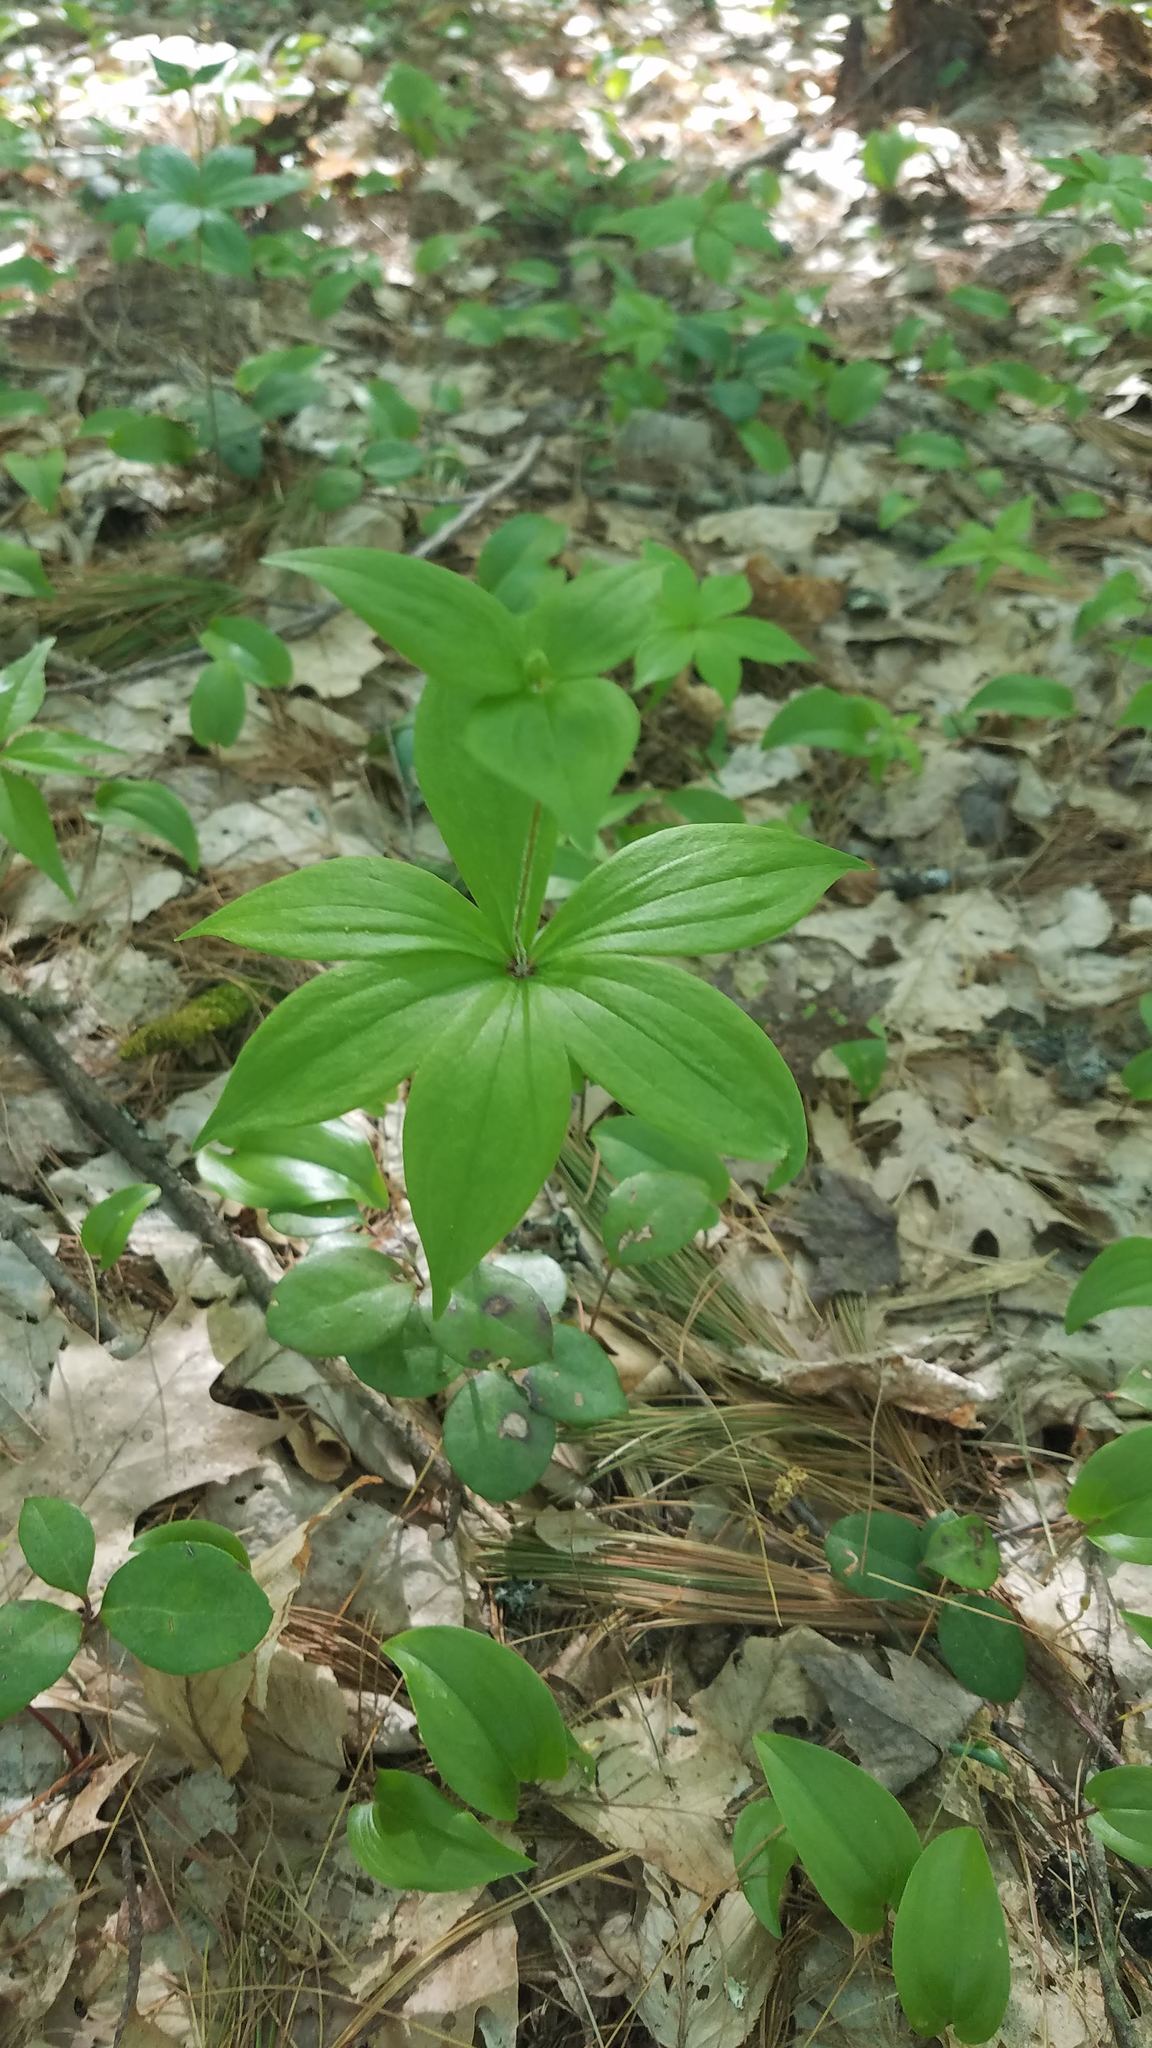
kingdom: Plantae
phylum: Tracheophyta
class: Liliopsida
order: Liliales
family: Liliaceae
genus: Medeola
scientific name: Medeola virginiana
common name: Indian cucumber-root
